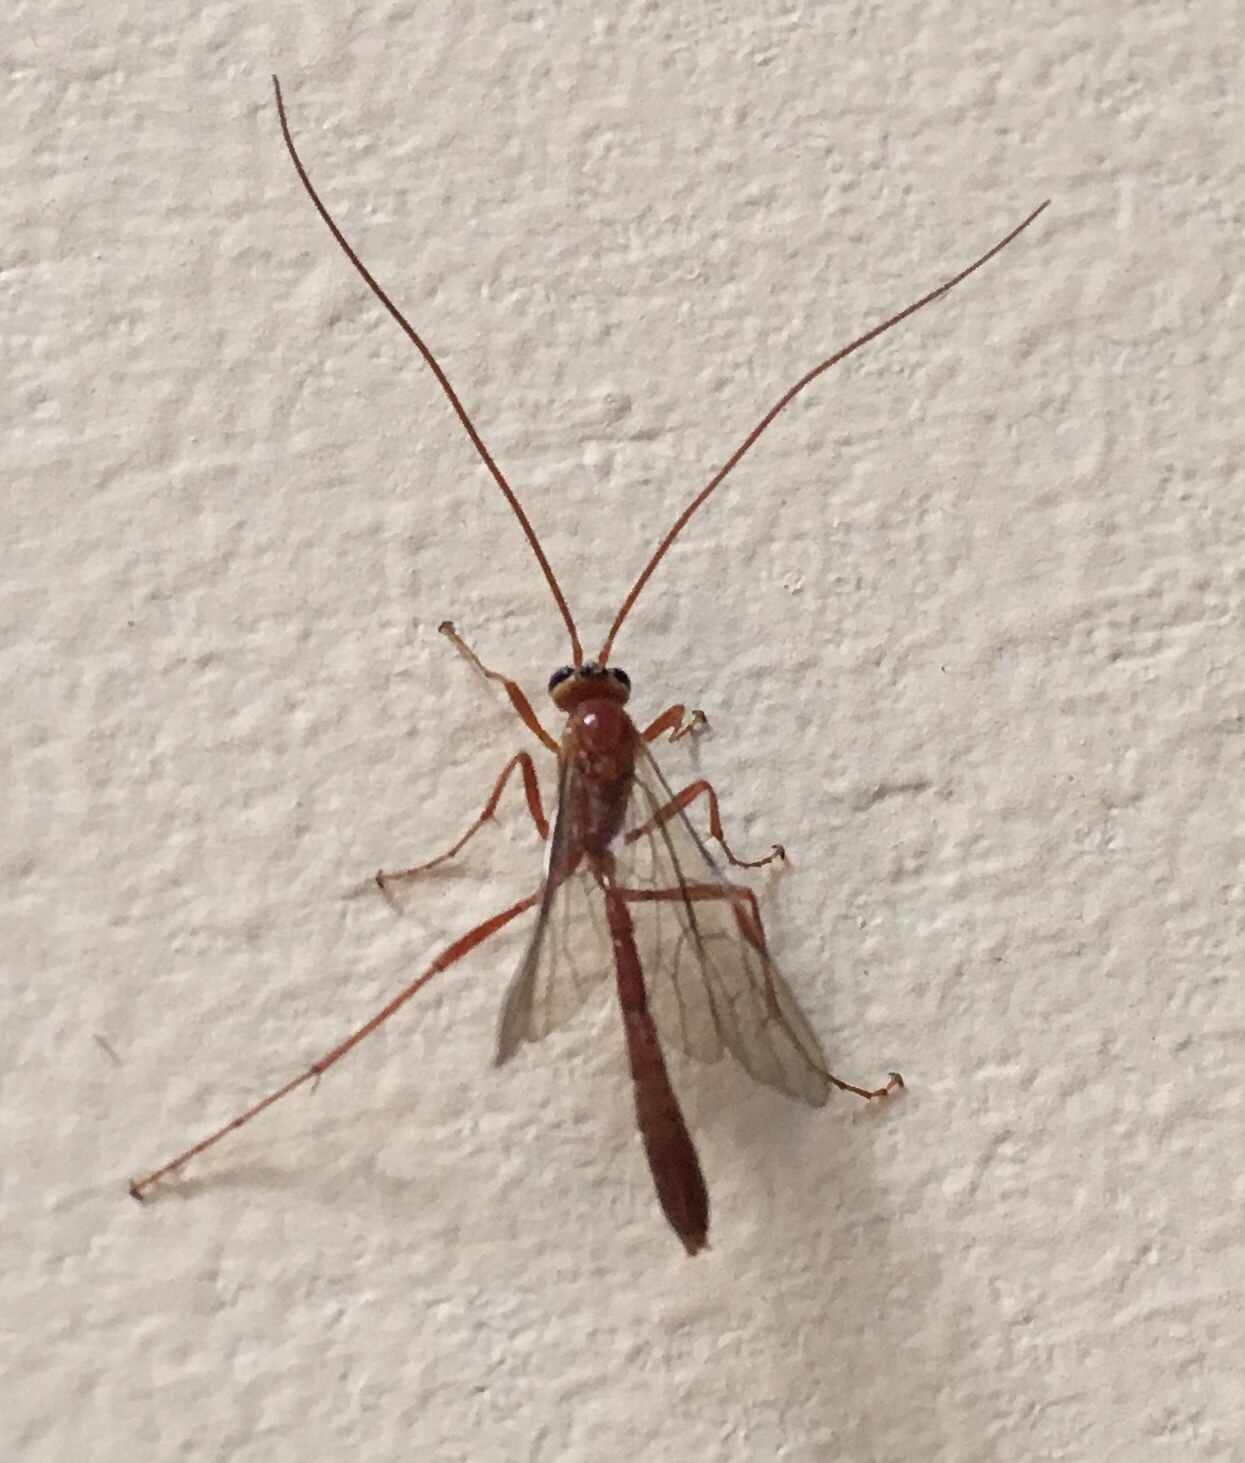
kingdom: Animalia
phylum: Arthropoda
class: Insecta
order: Hymenoptera
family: Ichneumonidae
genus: Ophion
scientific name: Ophion
